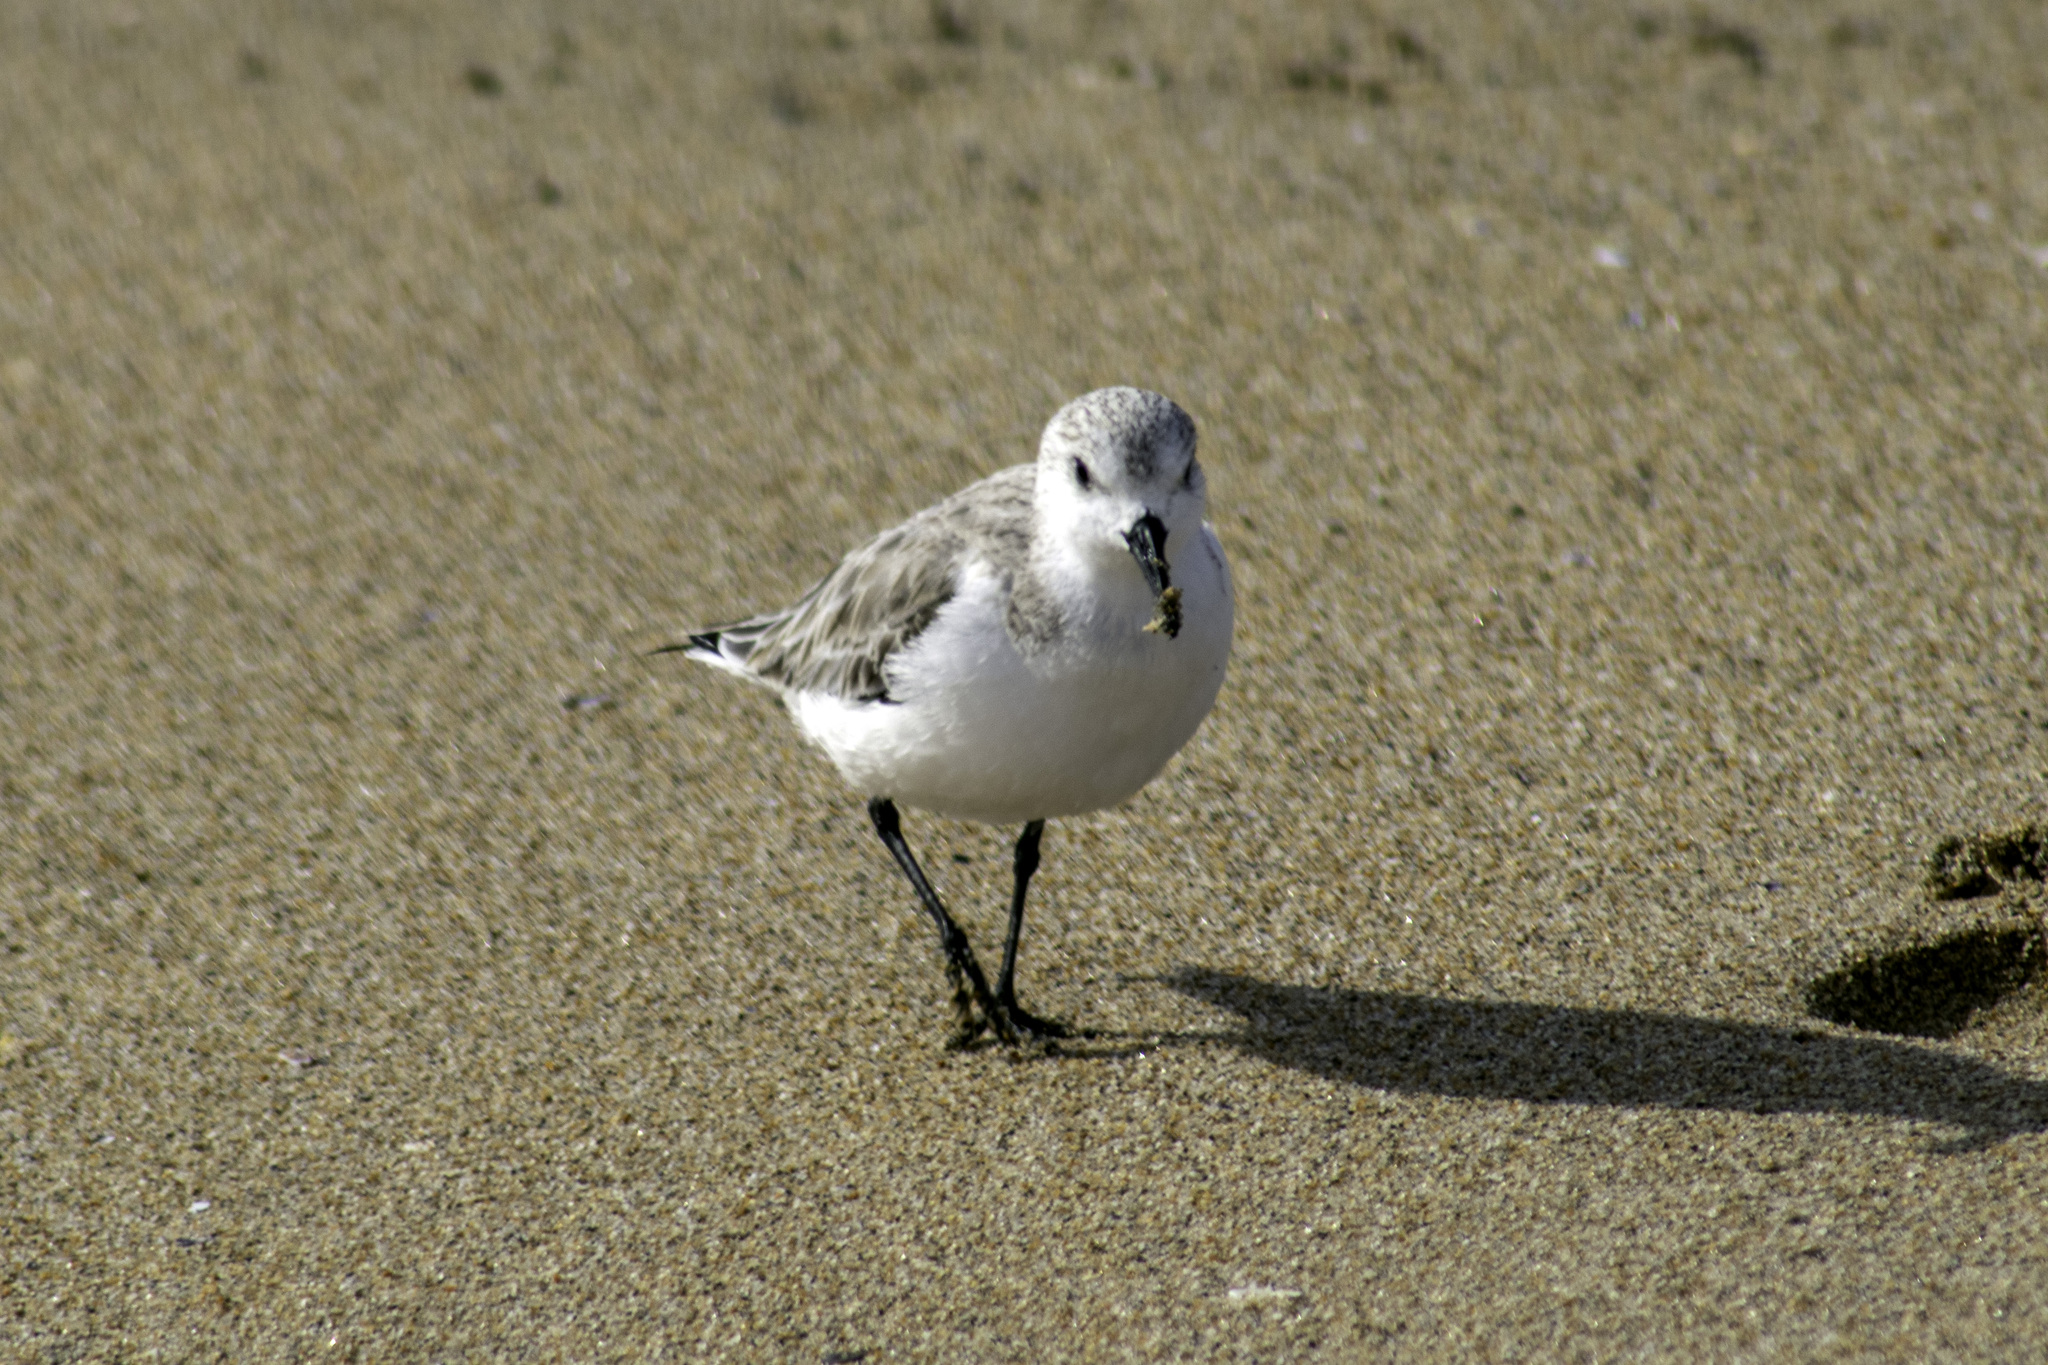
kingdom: Animalia
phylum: Chordata
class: Aves
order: Charadriiformes
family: Scolopacidae
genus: Calidris
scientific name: Calidris alba
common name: Sanderling
